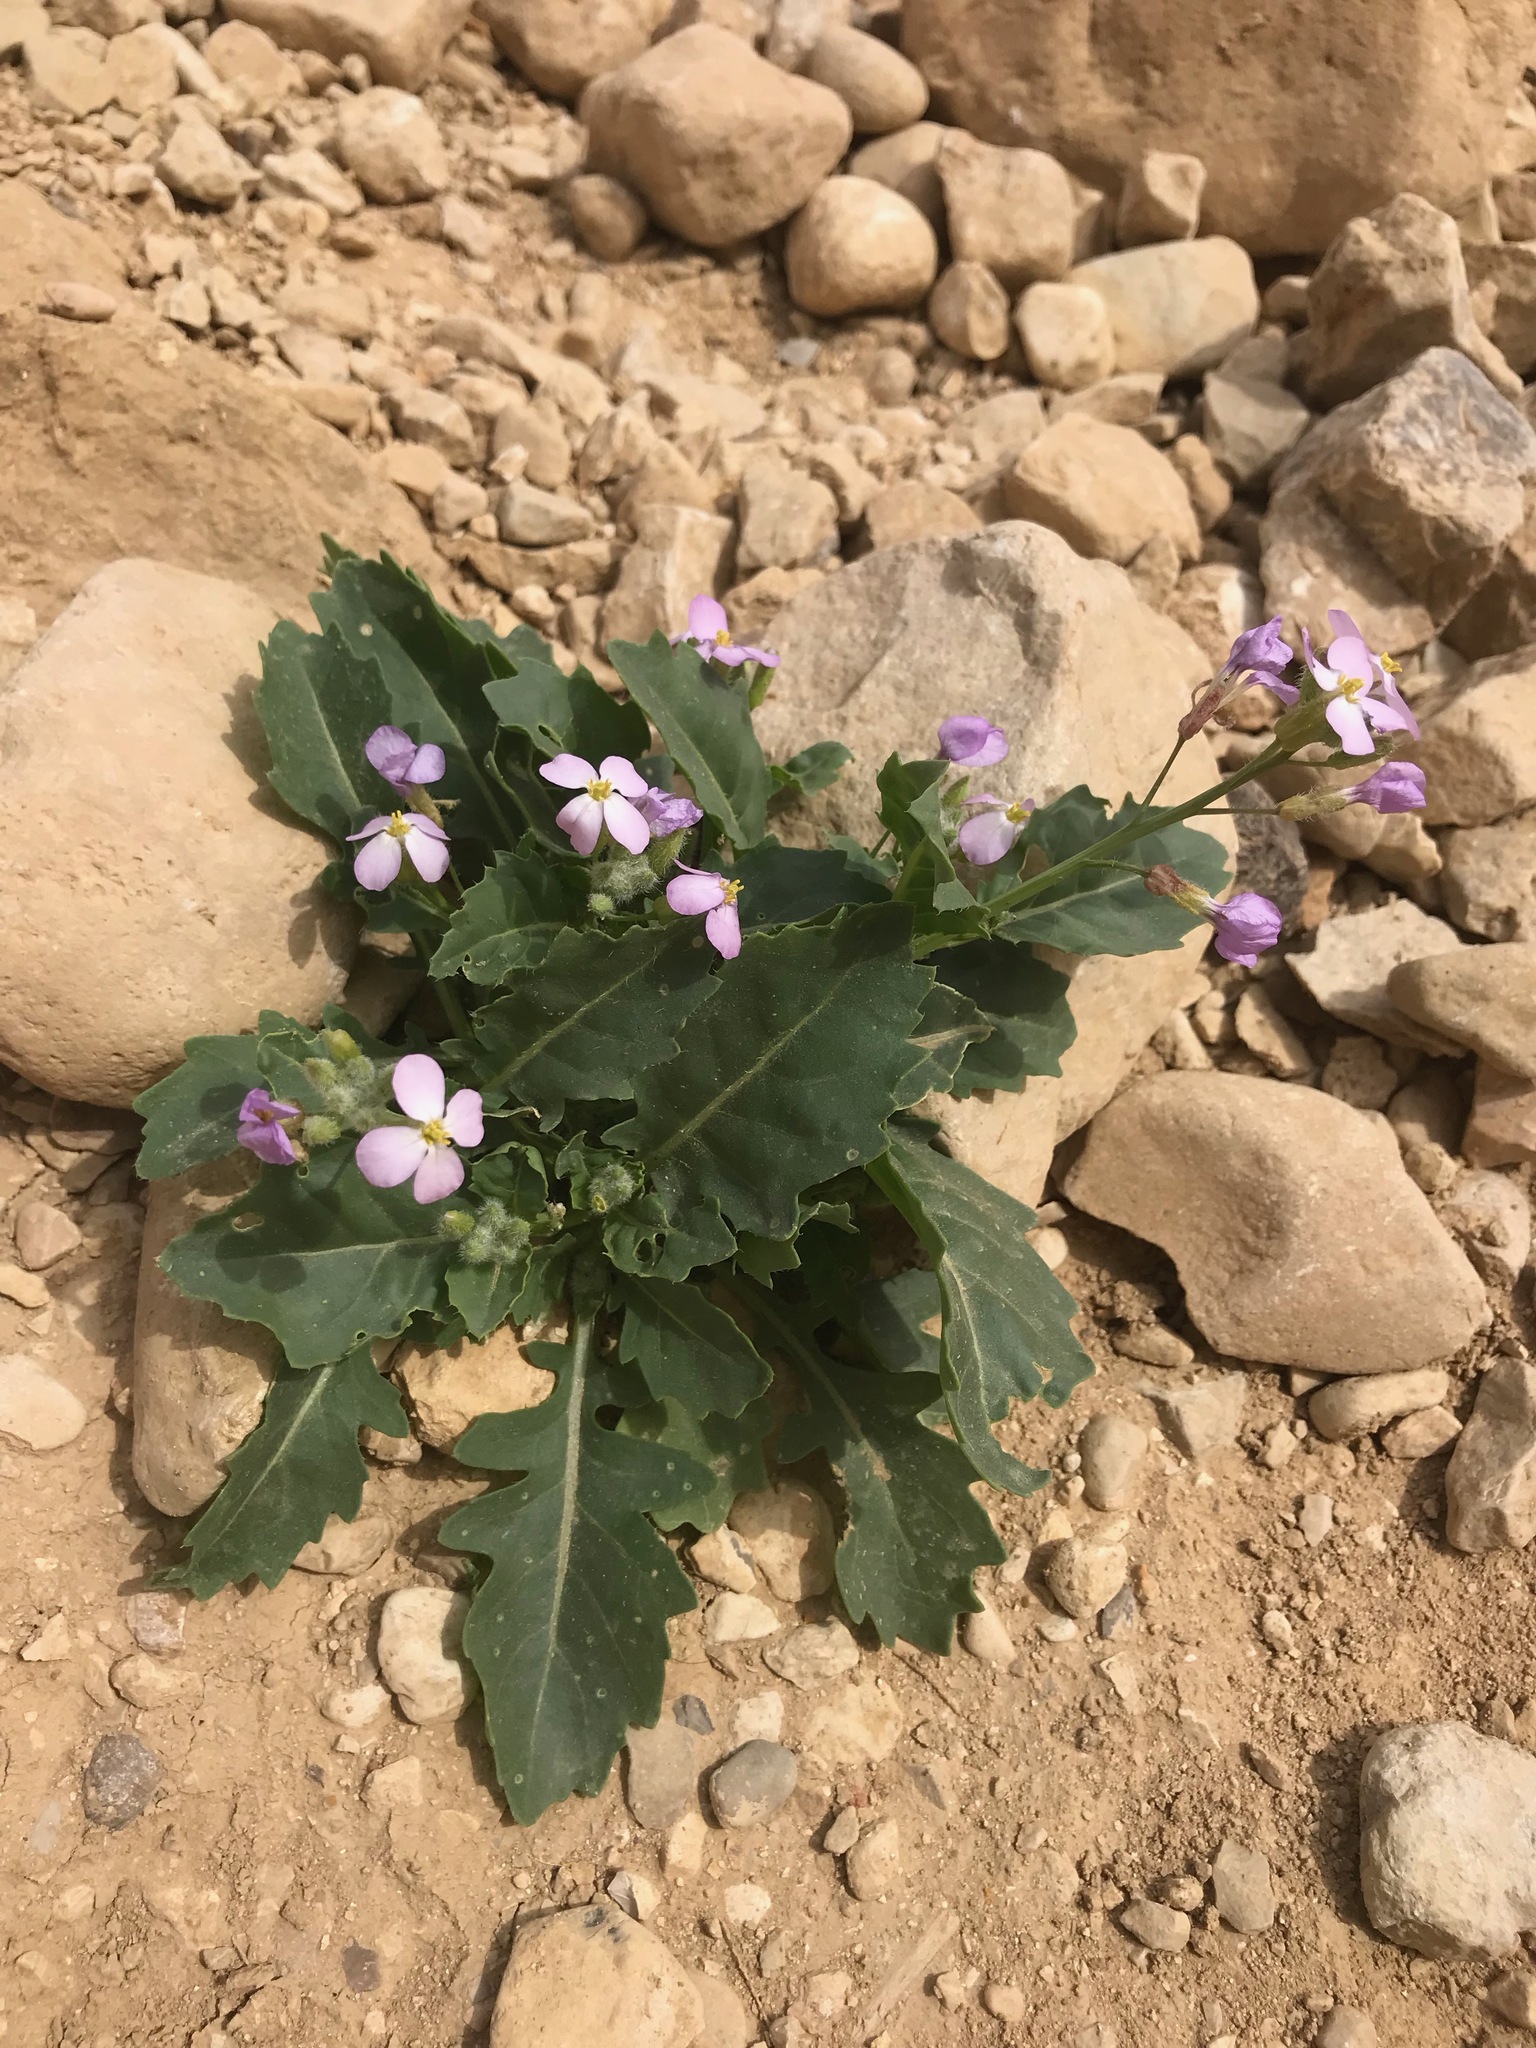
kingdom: Plantae
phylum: Tracheophyta
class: Magnoliopsida
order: Brassicales
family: Brassicaceae
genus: Diplotaxis
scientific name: Diplotaxis acris
